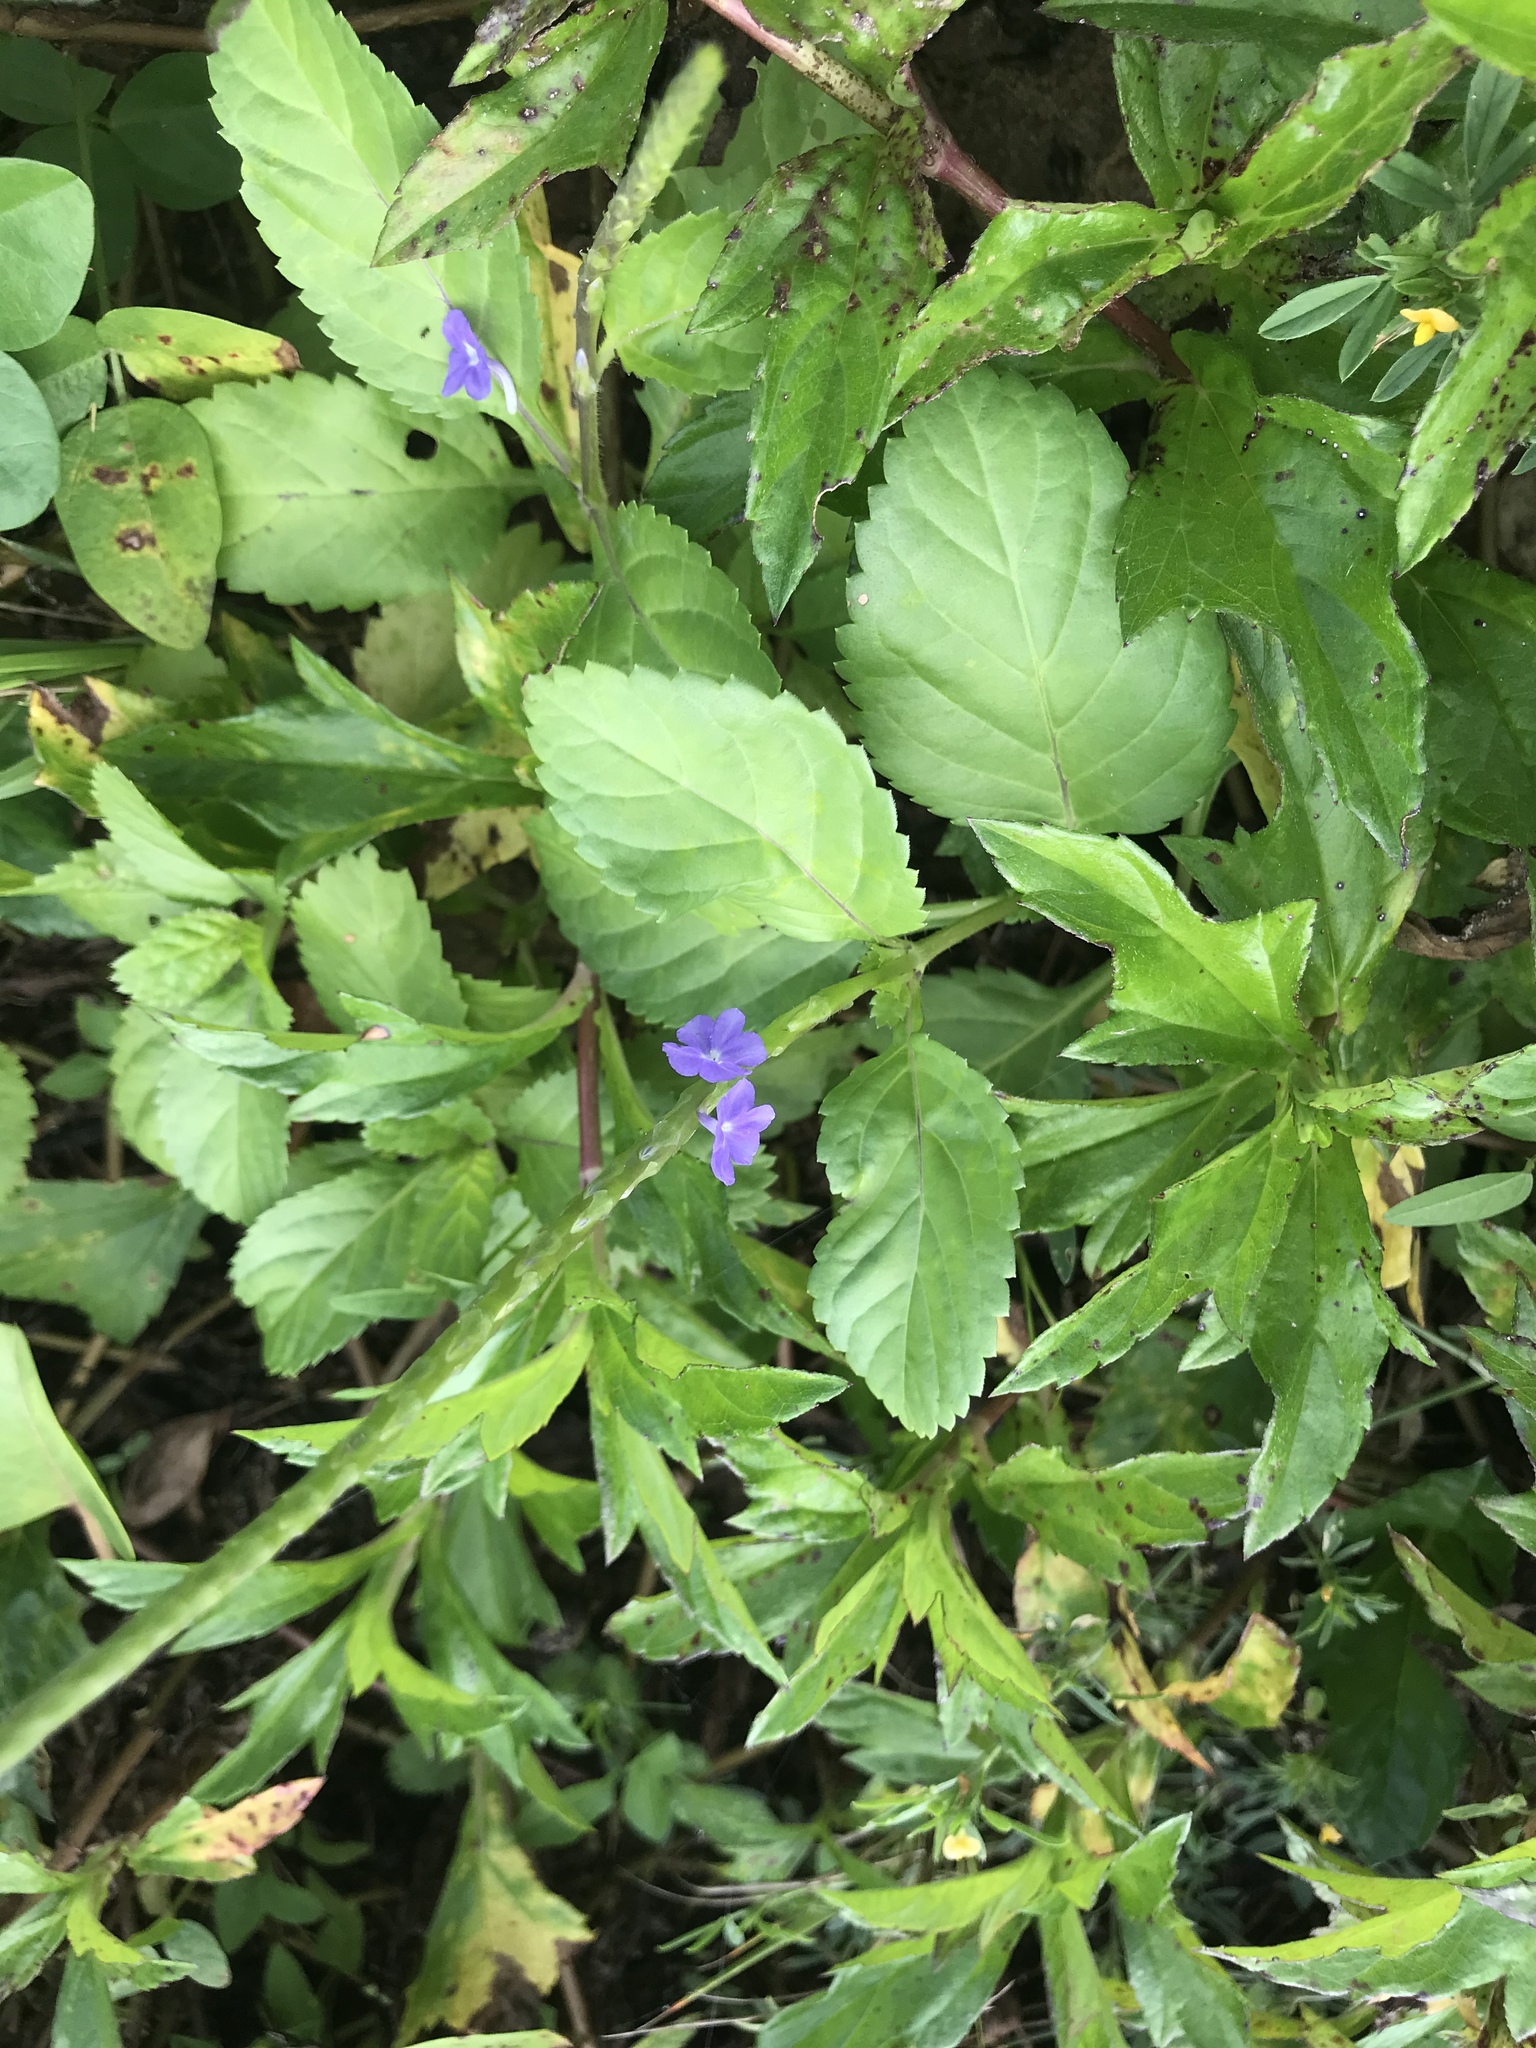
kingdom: Plantae
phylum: Tracheophyta
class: Magnoliopsida
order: Lamiales
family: Verbenaceae
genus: Stachytarpheta
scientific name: Stachytarpheta jamaicensis
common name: Light-blue snakeweed
